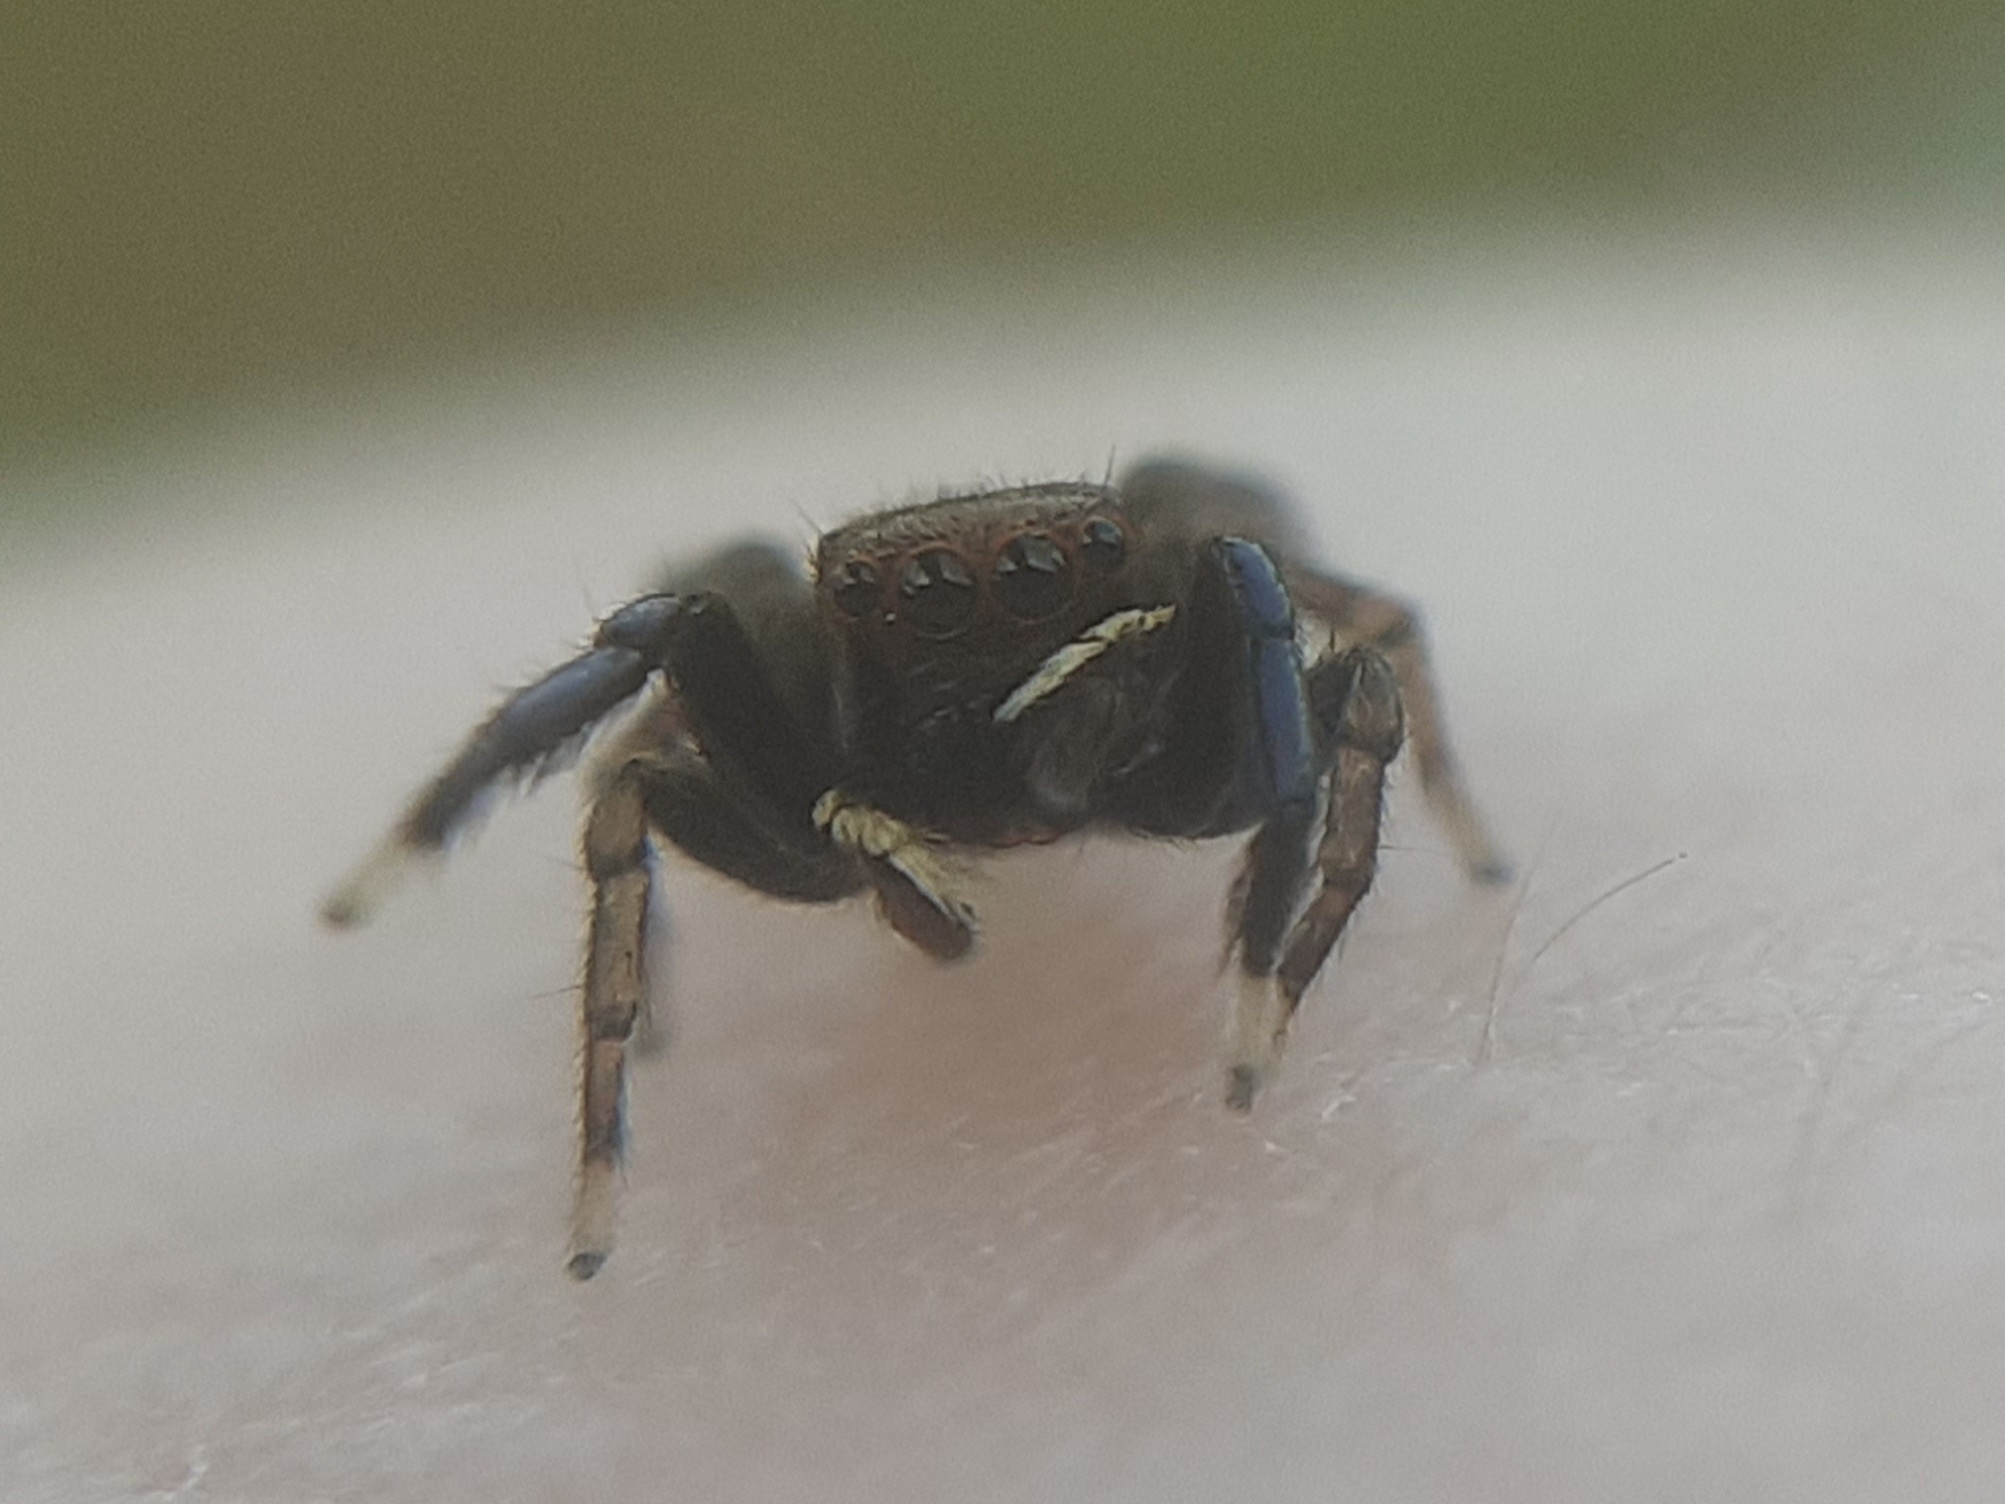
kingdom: Animalia
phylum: Arthropoda
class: Arachnida
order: Araneae
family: Salticidae
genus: Euophrys
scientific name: Euophrys frontalis
